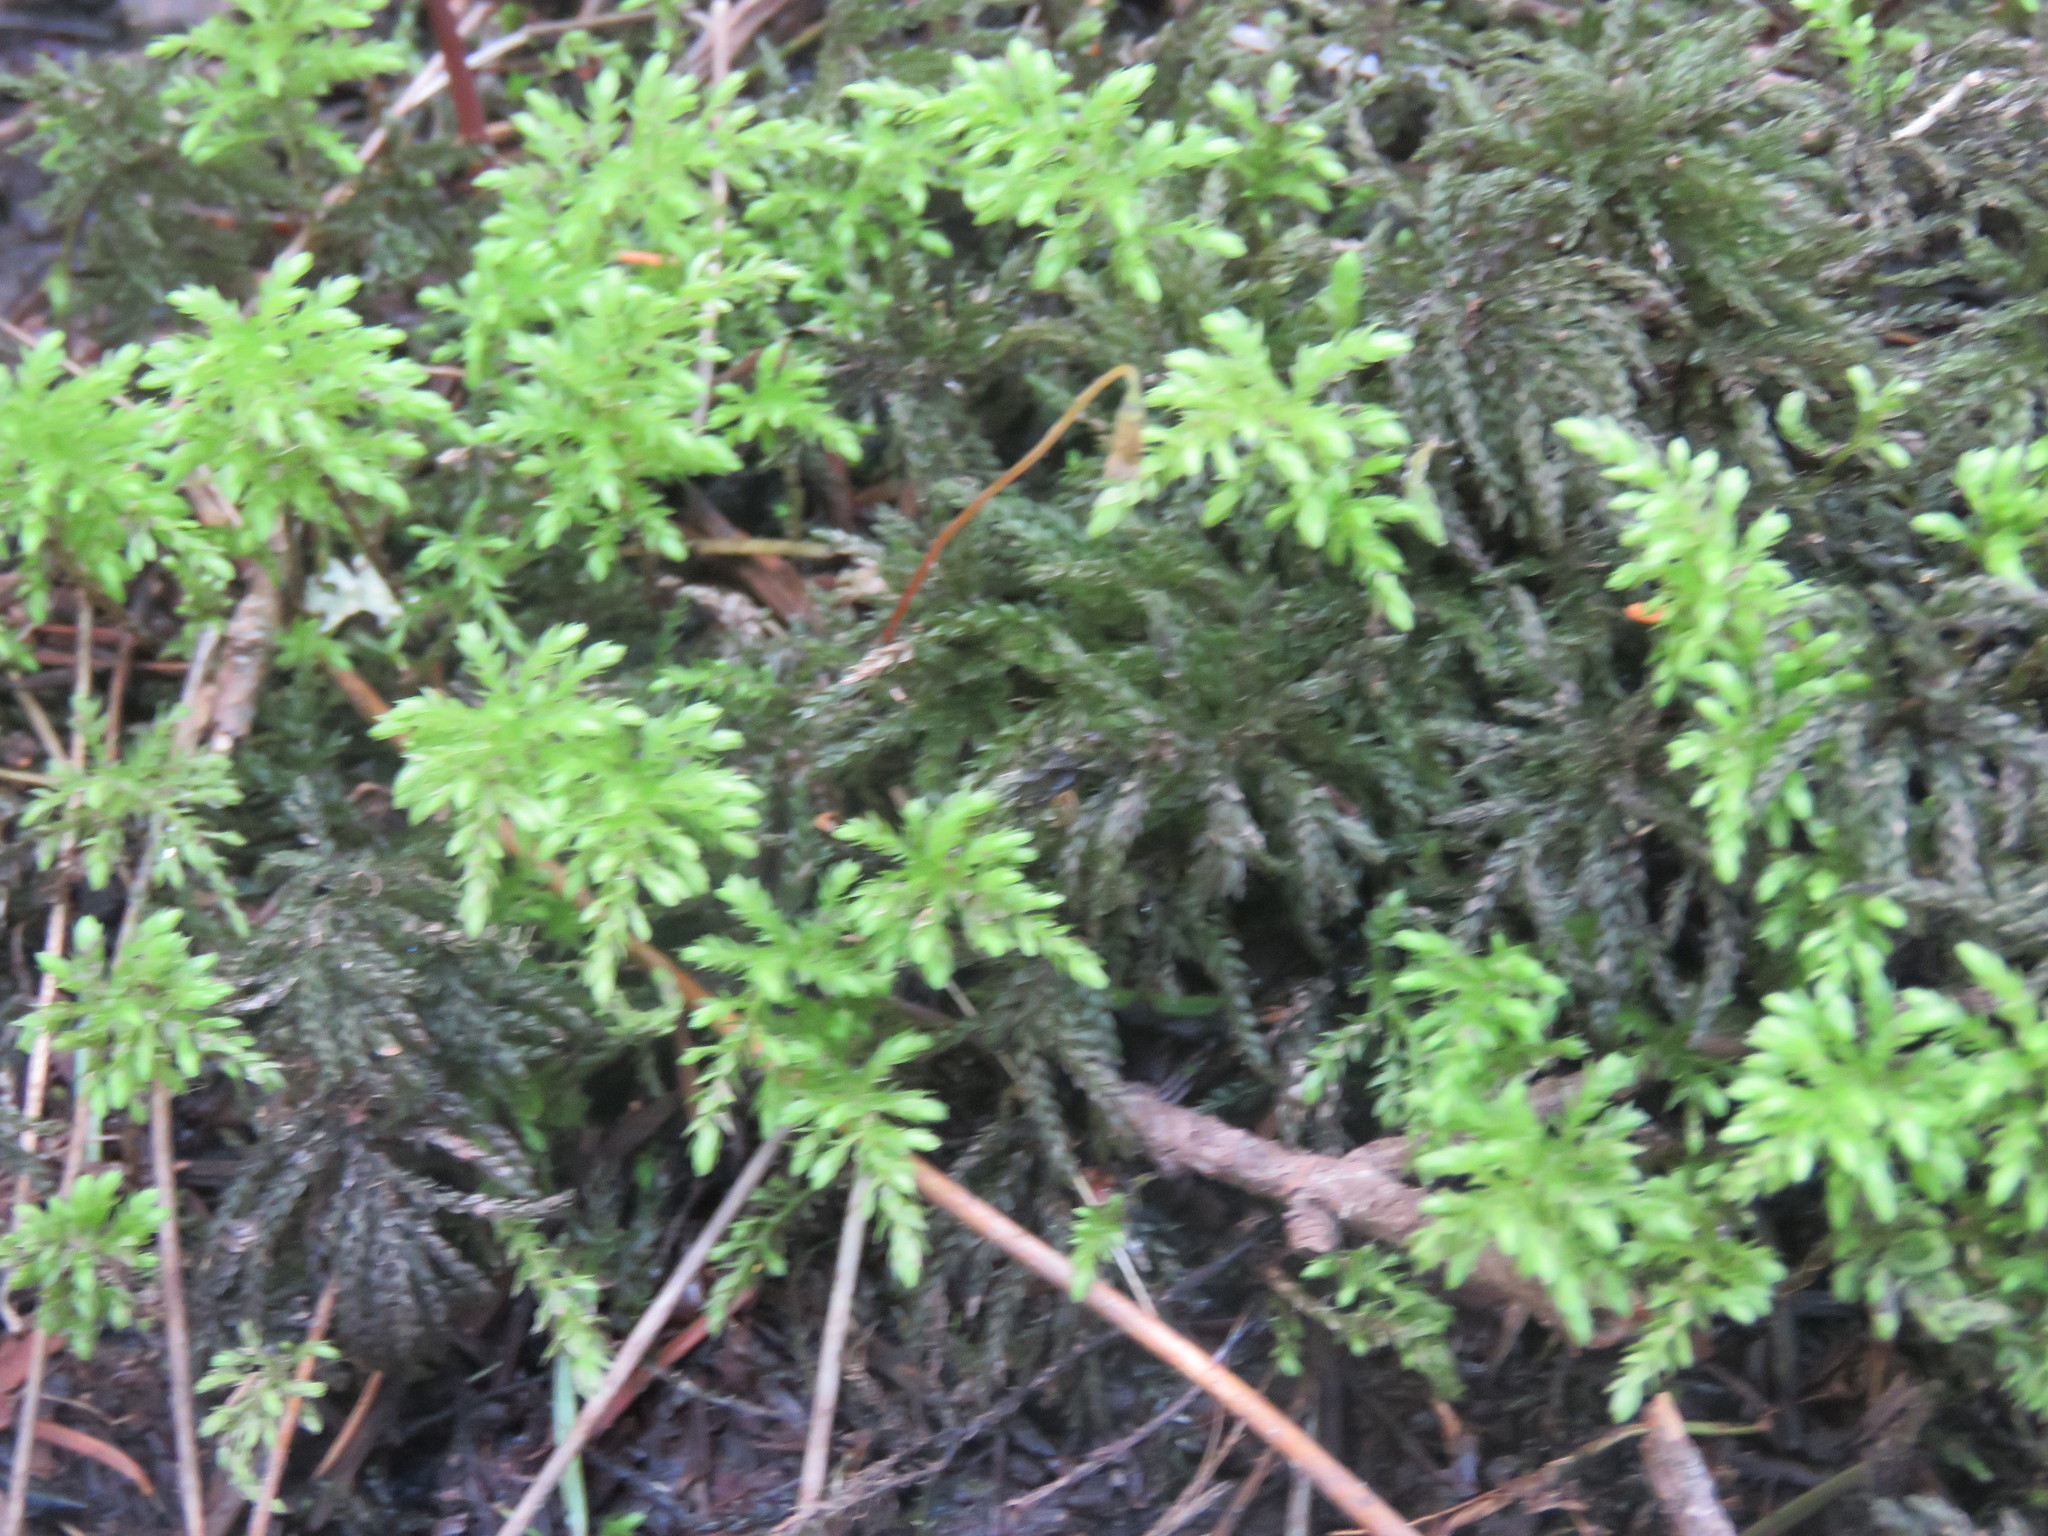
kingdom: Plantae
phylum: Bryophyta
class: Bryopsida
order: Bryales
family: Mniaceae
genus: Leucolepis
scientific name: Leucolepis acanthoneura
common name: Leucolepis umbrella moss
